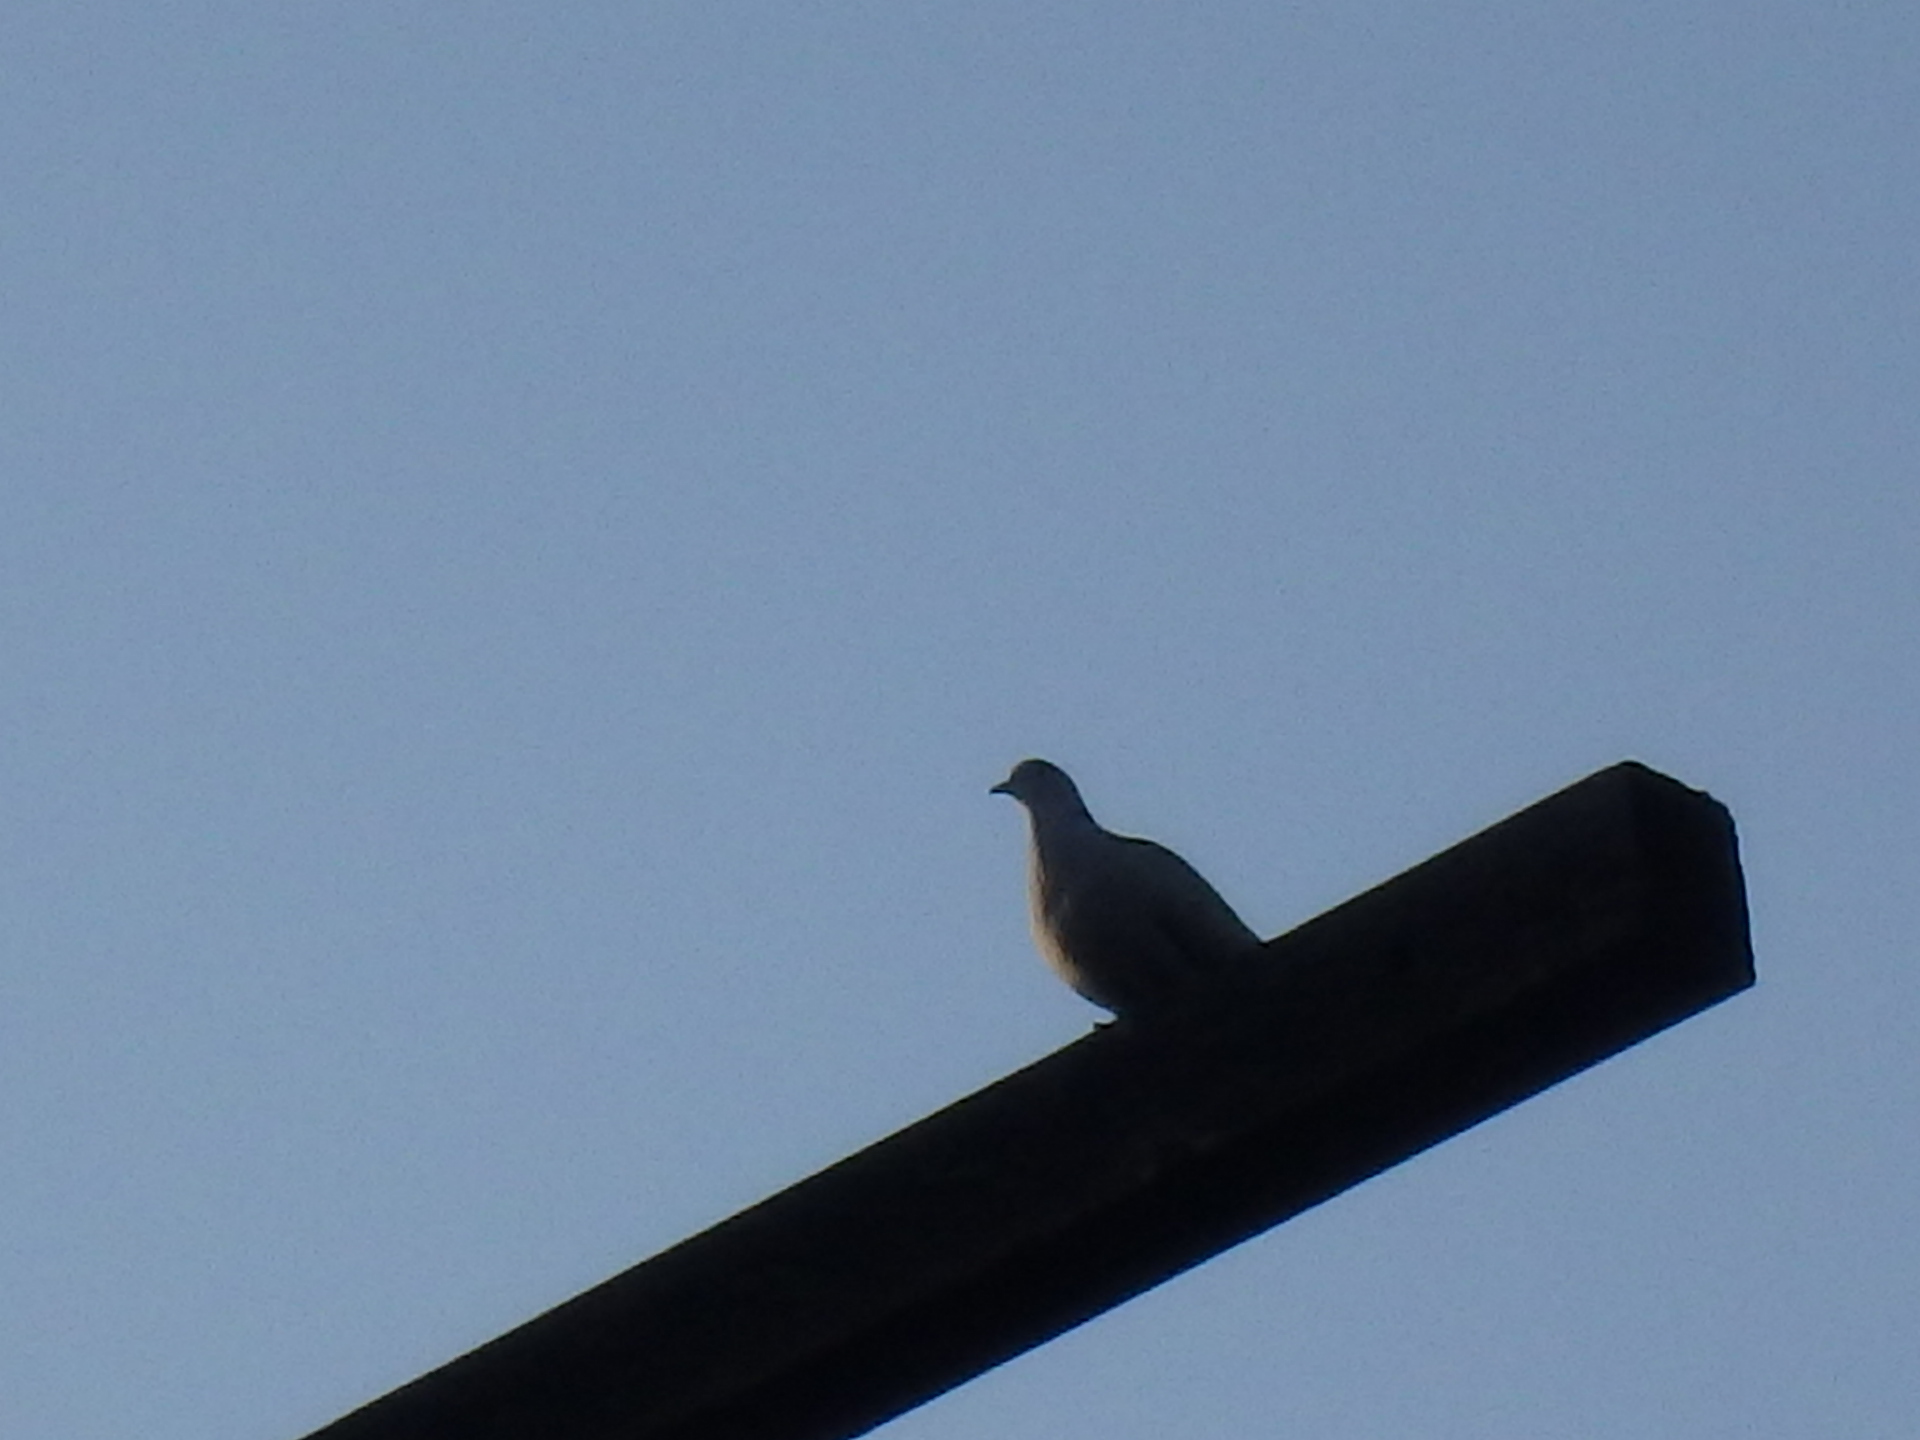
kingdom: Animalia
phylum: Chordata
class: Aves
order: Columbiformes
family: Columbidae
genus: Streptopelia
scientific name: Streptopelia decaocto
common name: Eurasian collared dove
